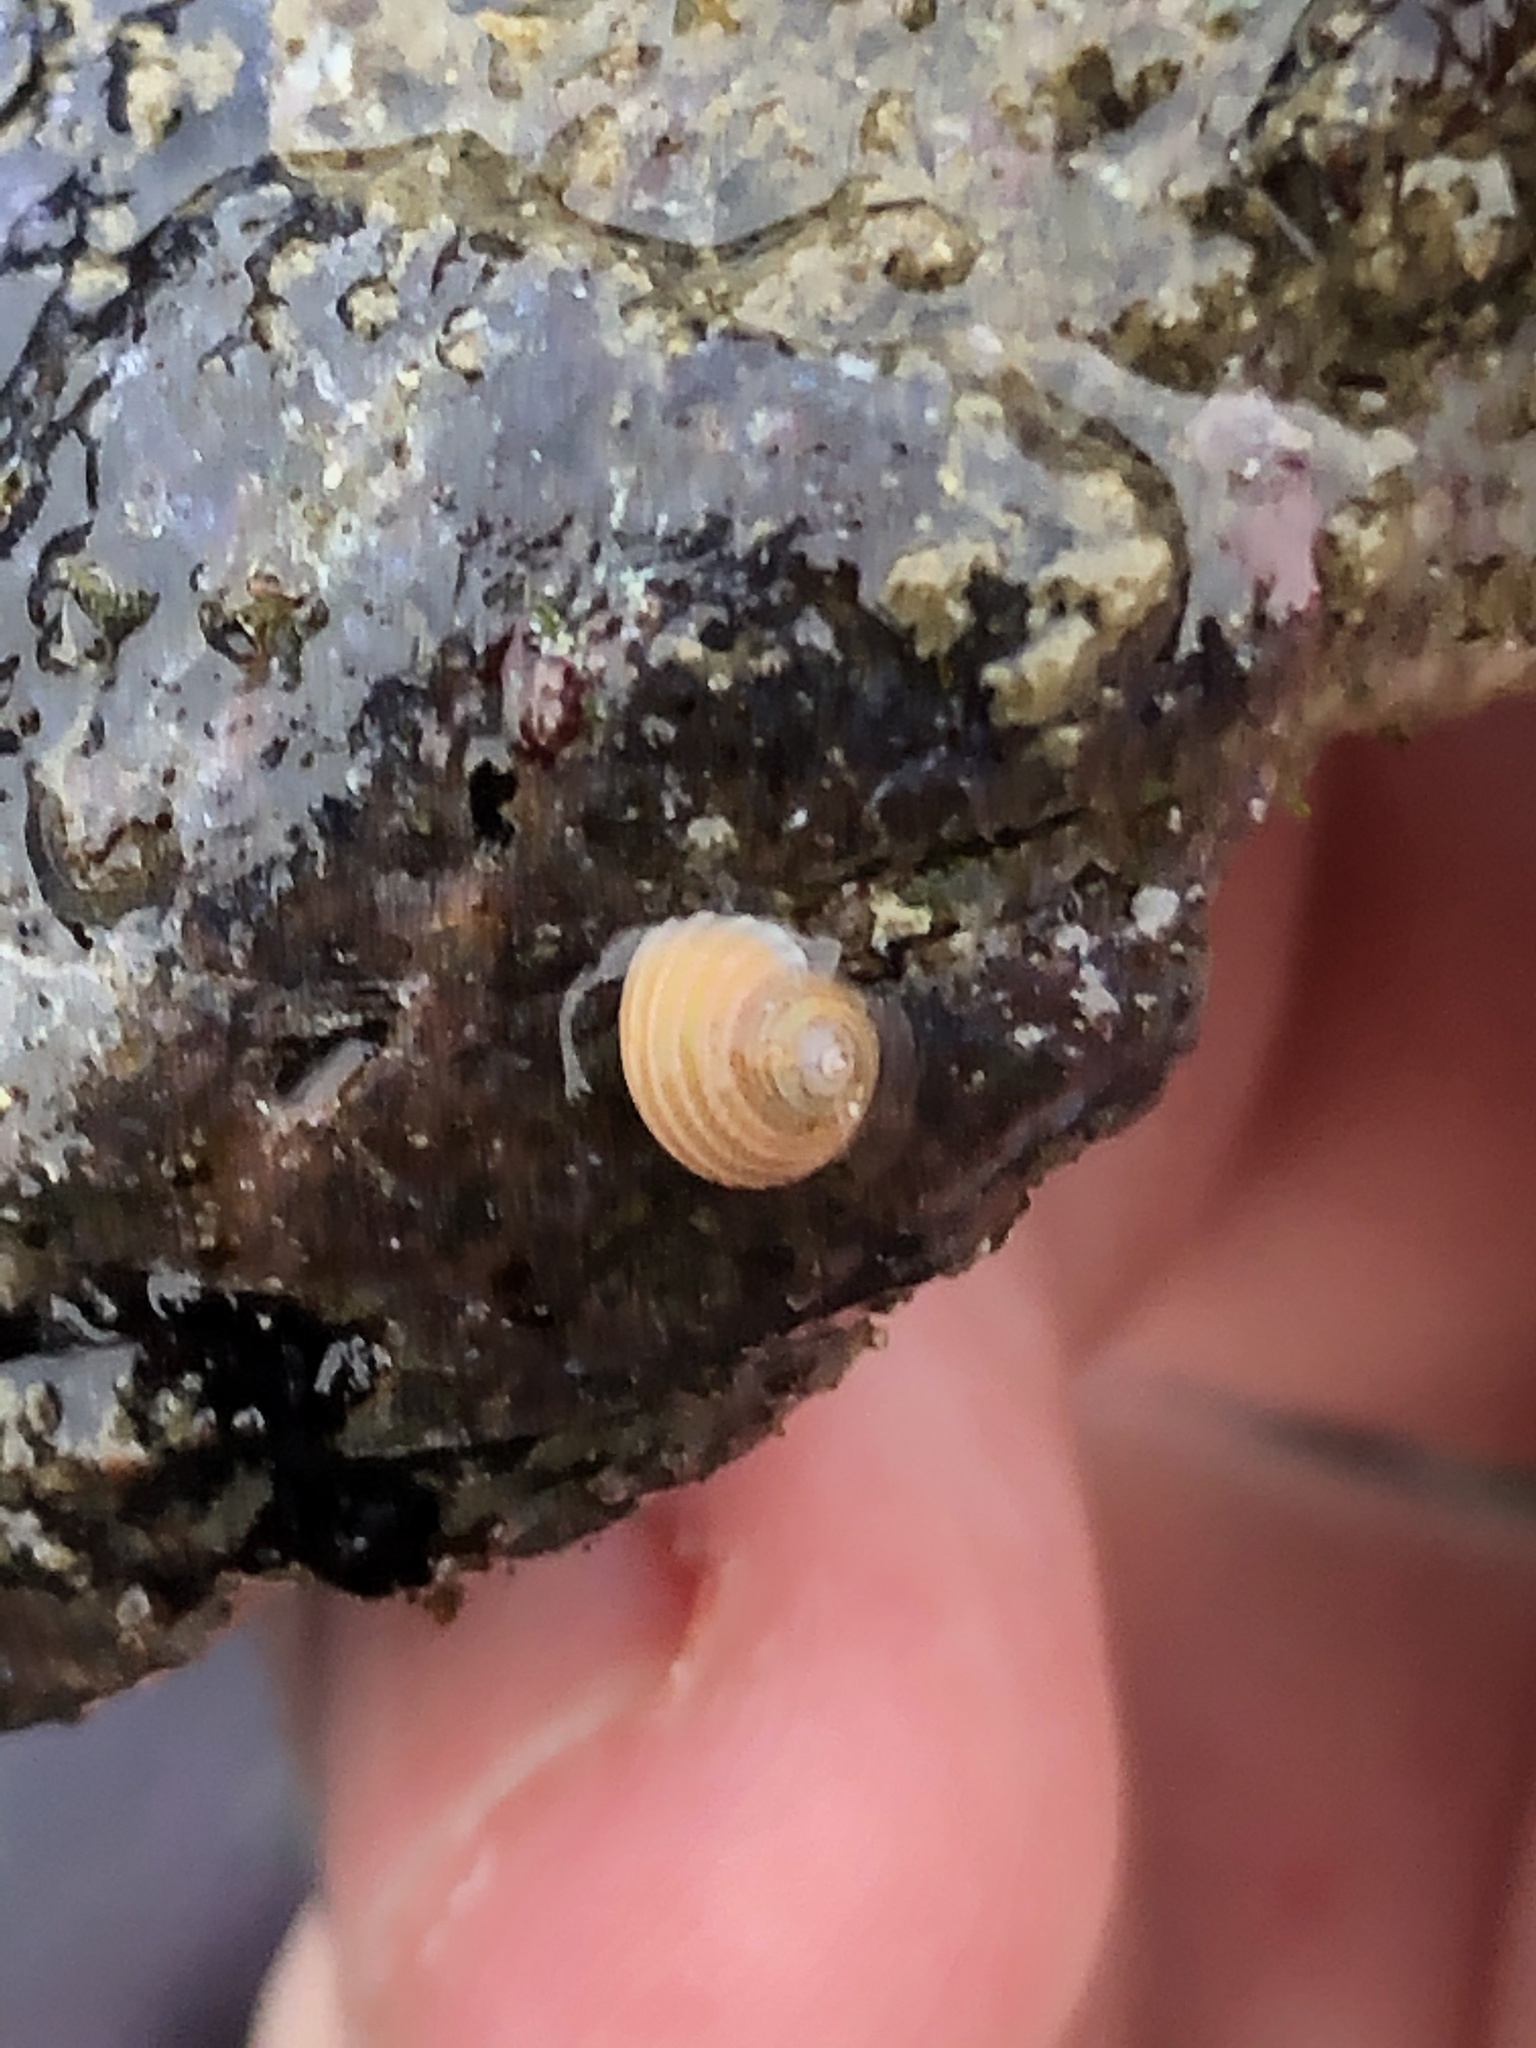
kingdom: Animalia
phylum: Mollusca
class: Gastropoda
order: Trochida
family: Margaritidae
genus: Margarites
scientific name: Margarites pupillus
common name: Puppet margarite
